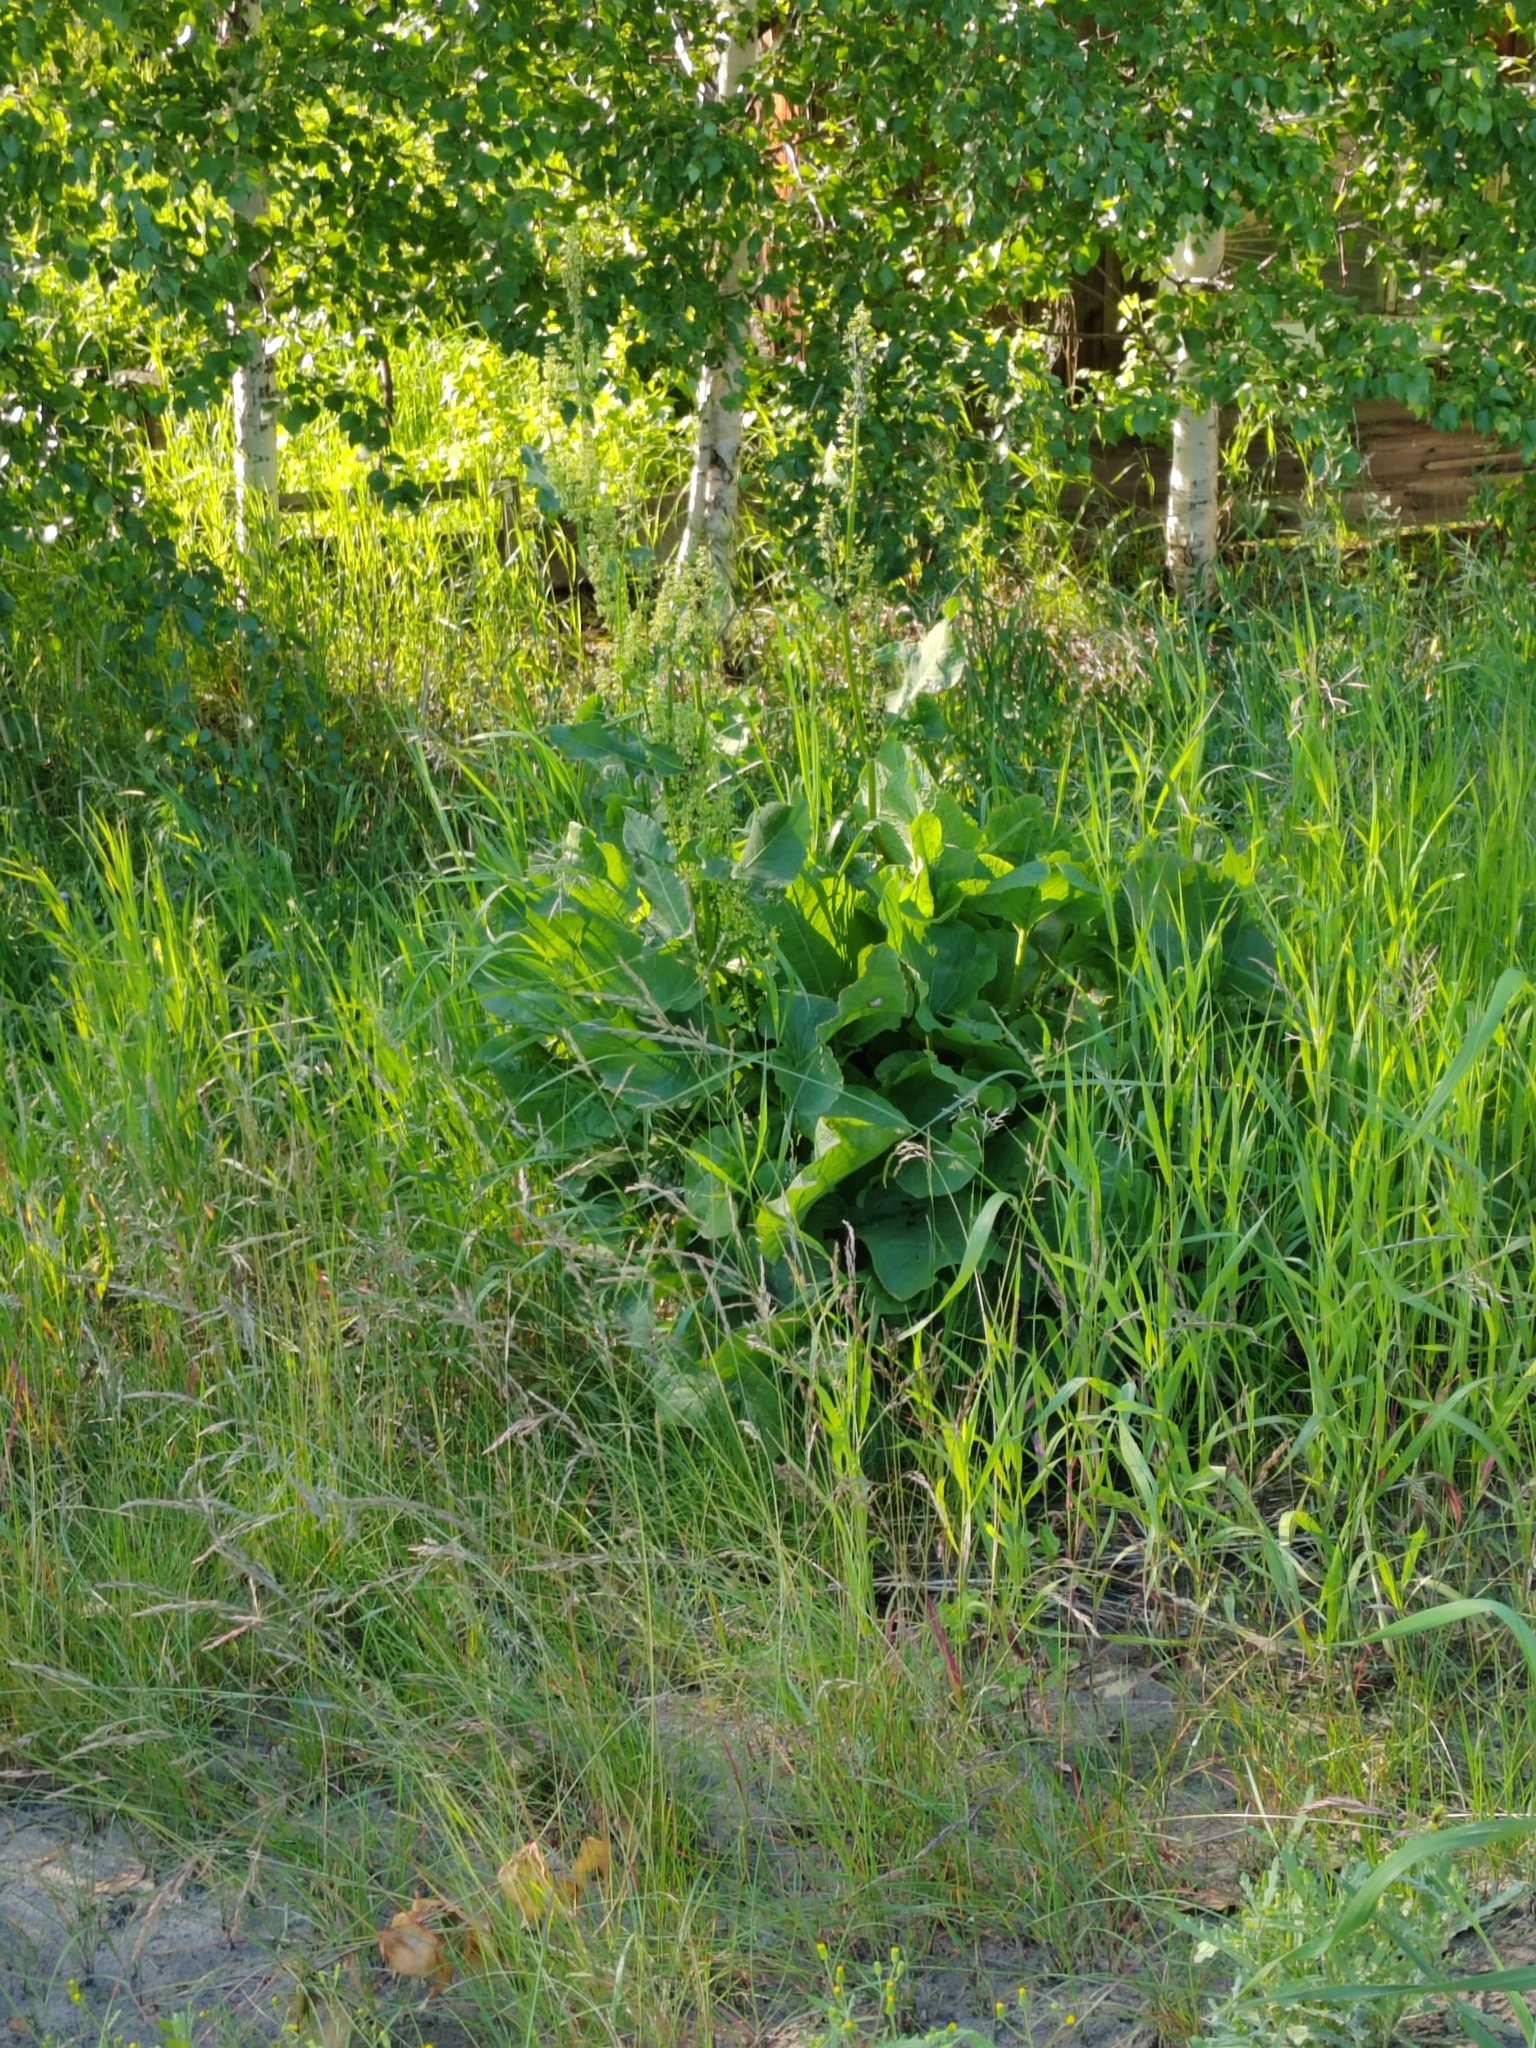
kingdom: Plantae
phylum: Tracheophyta
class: Magnoliopsida
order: Caryophyllales
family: Polygonaceae
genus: Rumex
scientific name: Rumex confertus
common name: Russian dock
